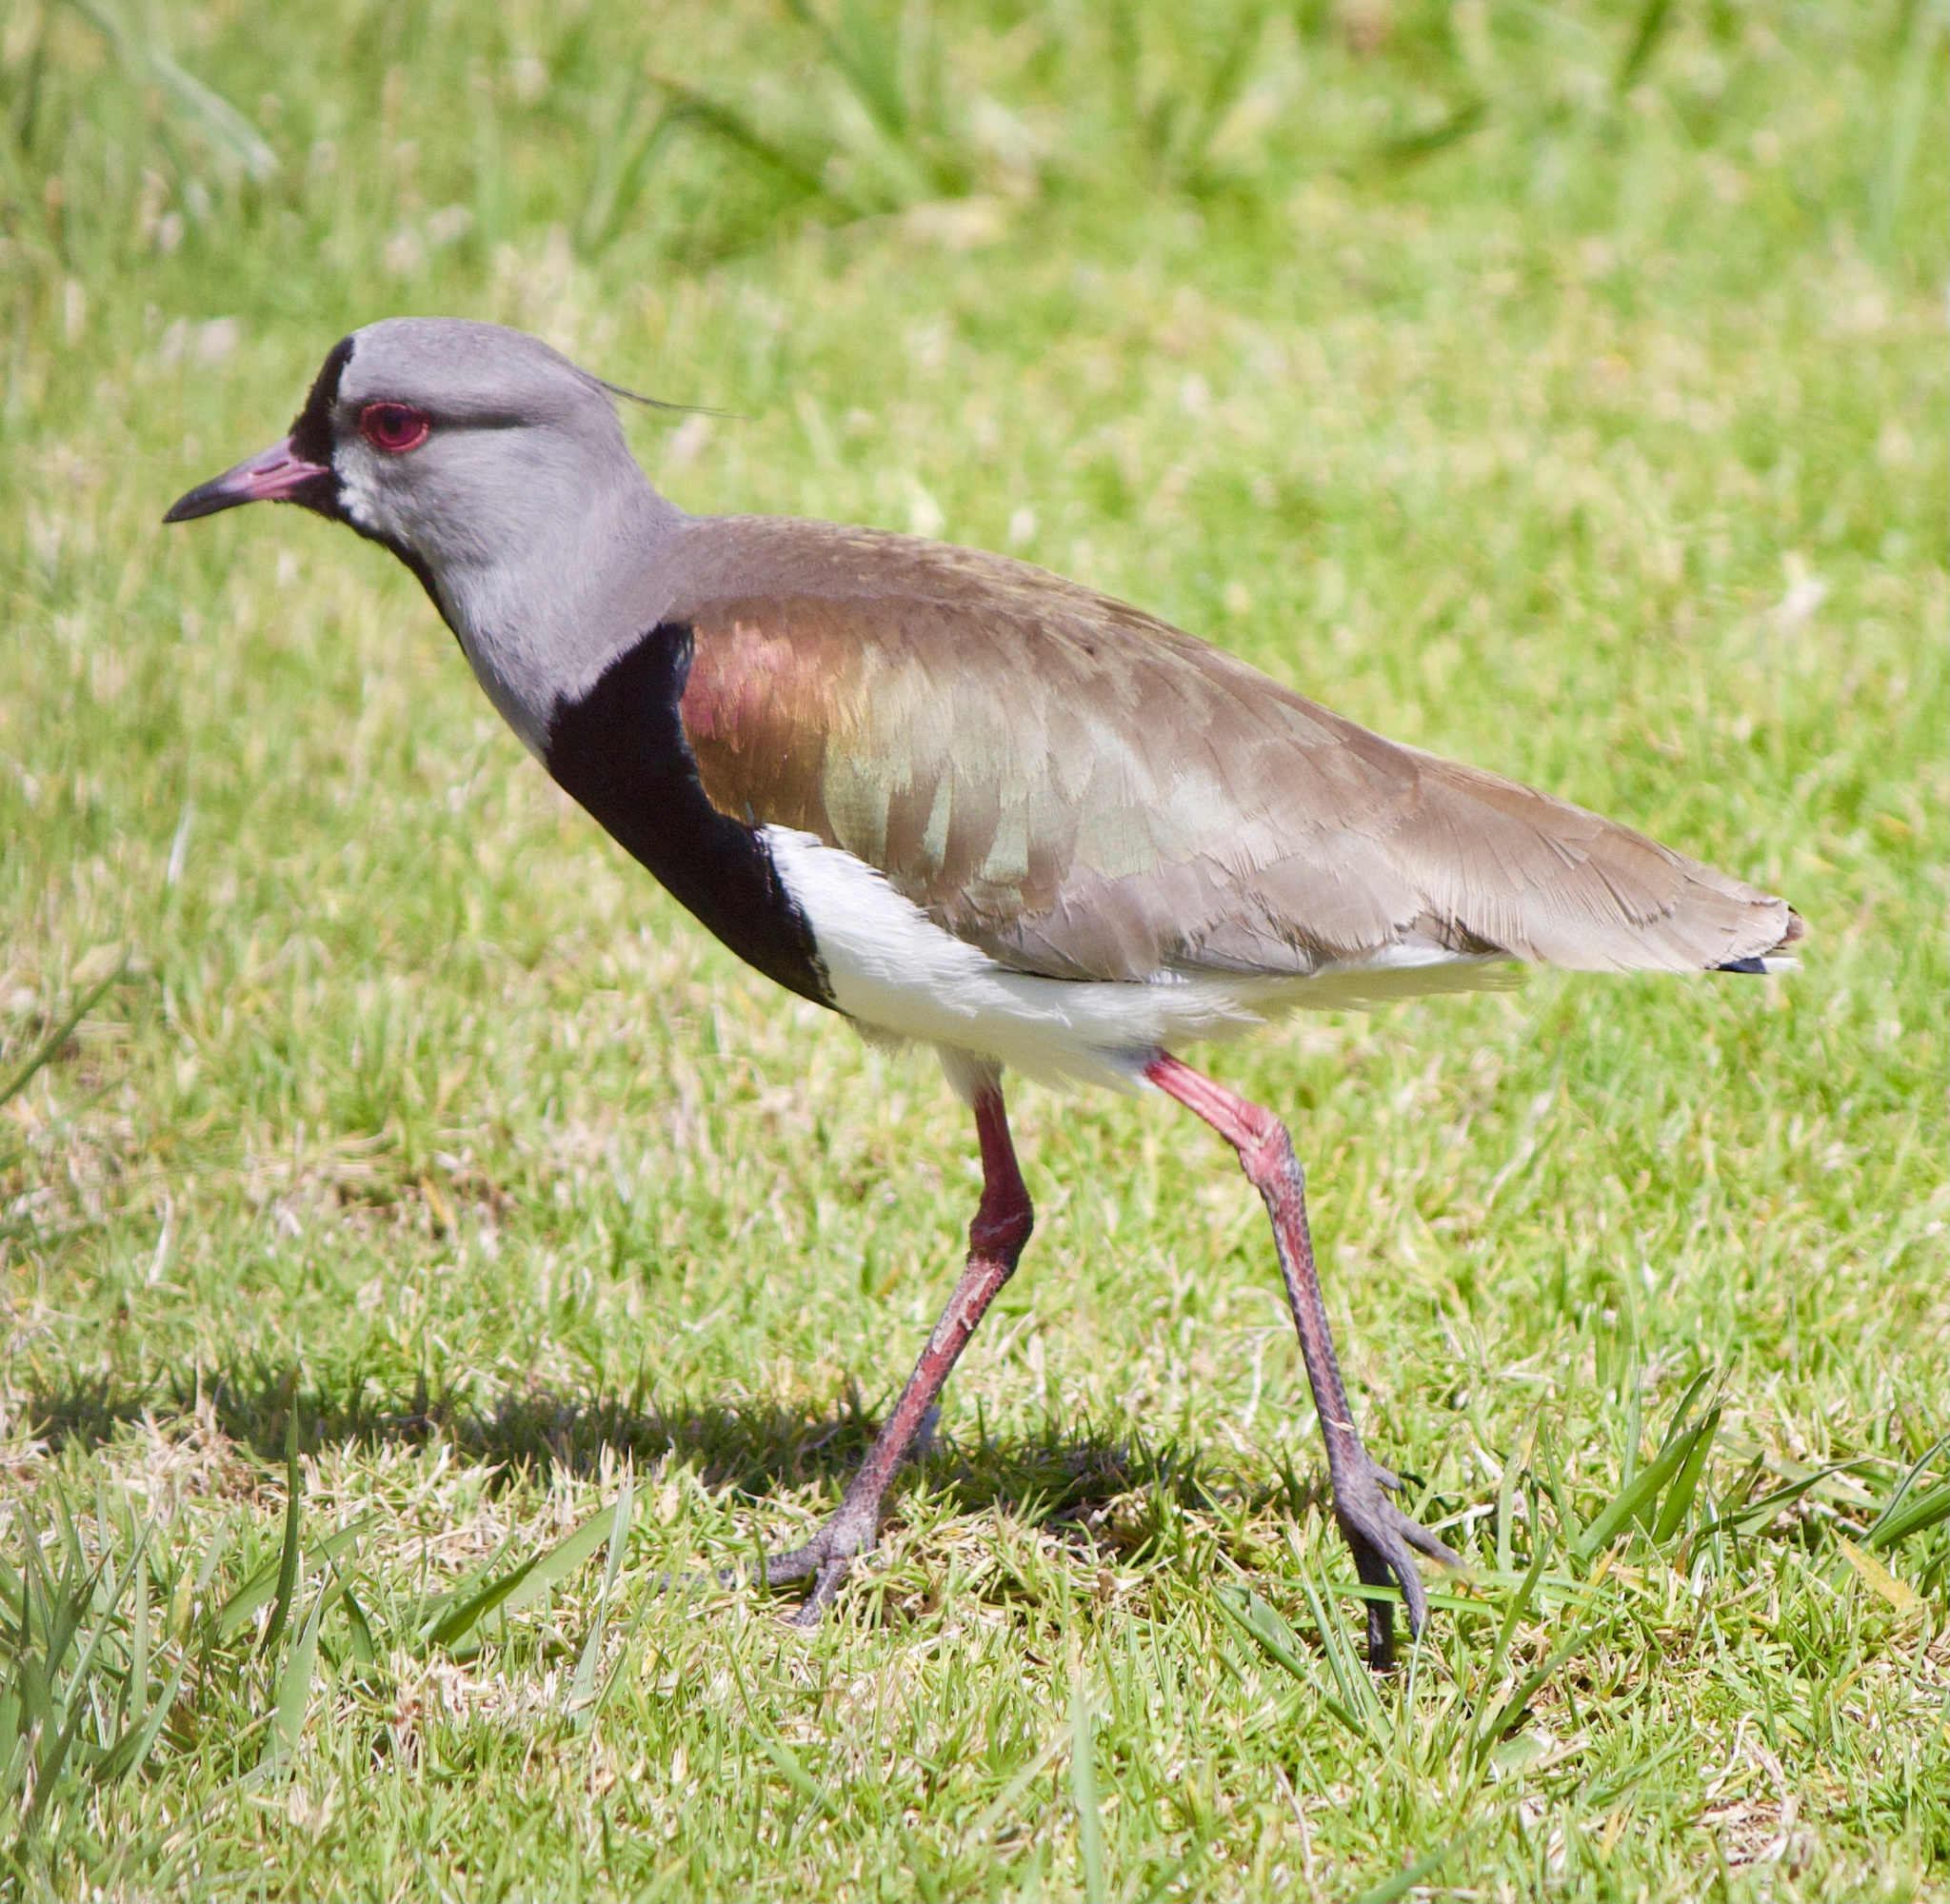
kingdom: Animalia
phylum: Chordata
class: Aves
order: Charadriiformes
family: Charadriidae
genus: Vanellus
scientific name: Vanellus chilensis
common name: Southern lapwing
